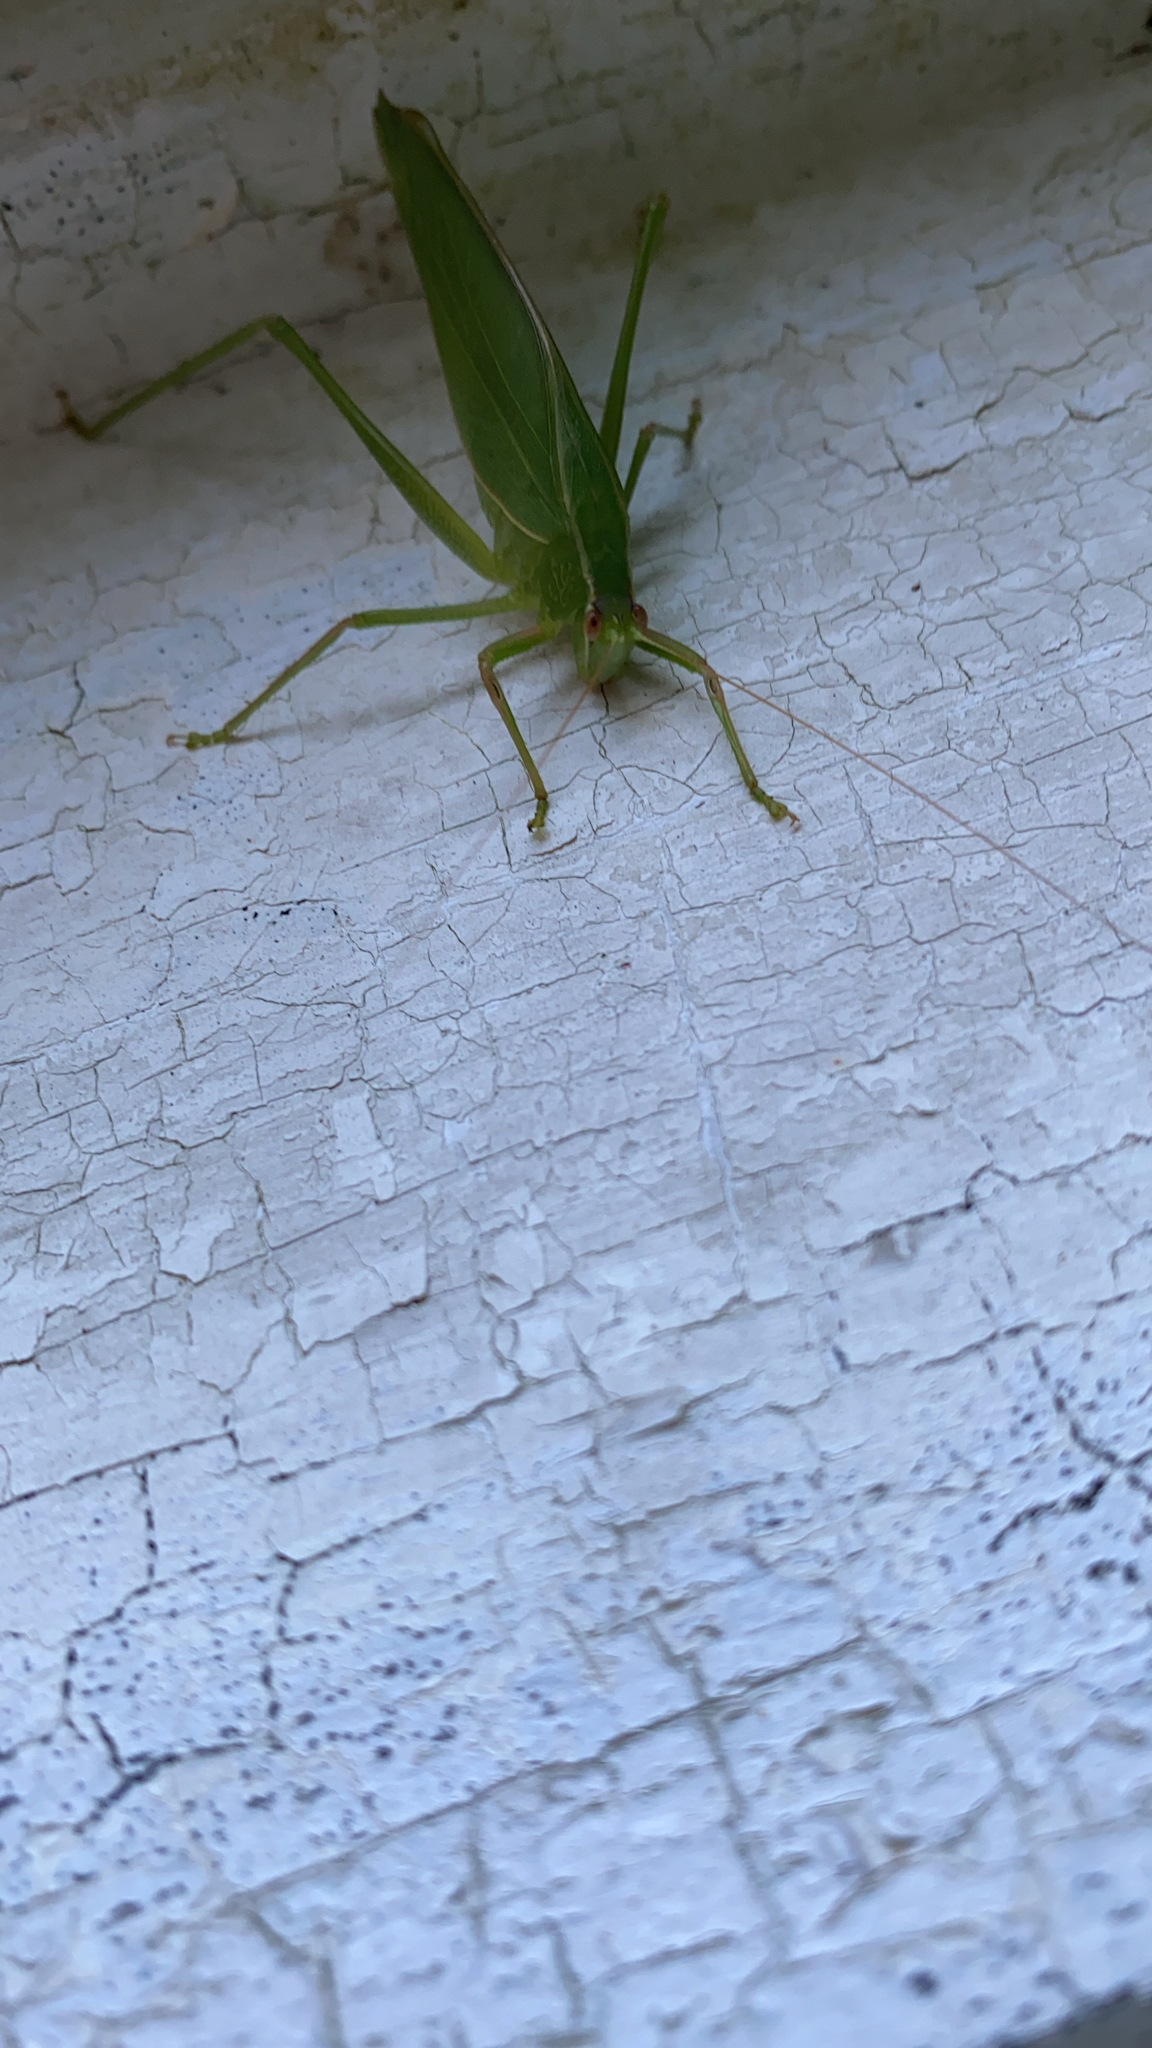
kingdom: Animalia
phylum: Arthropoda
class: Insecta
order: Orthoptera
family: Tettigoniidae
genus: Caedicia
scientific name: Caedicia simplex
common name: Common garden katydid
